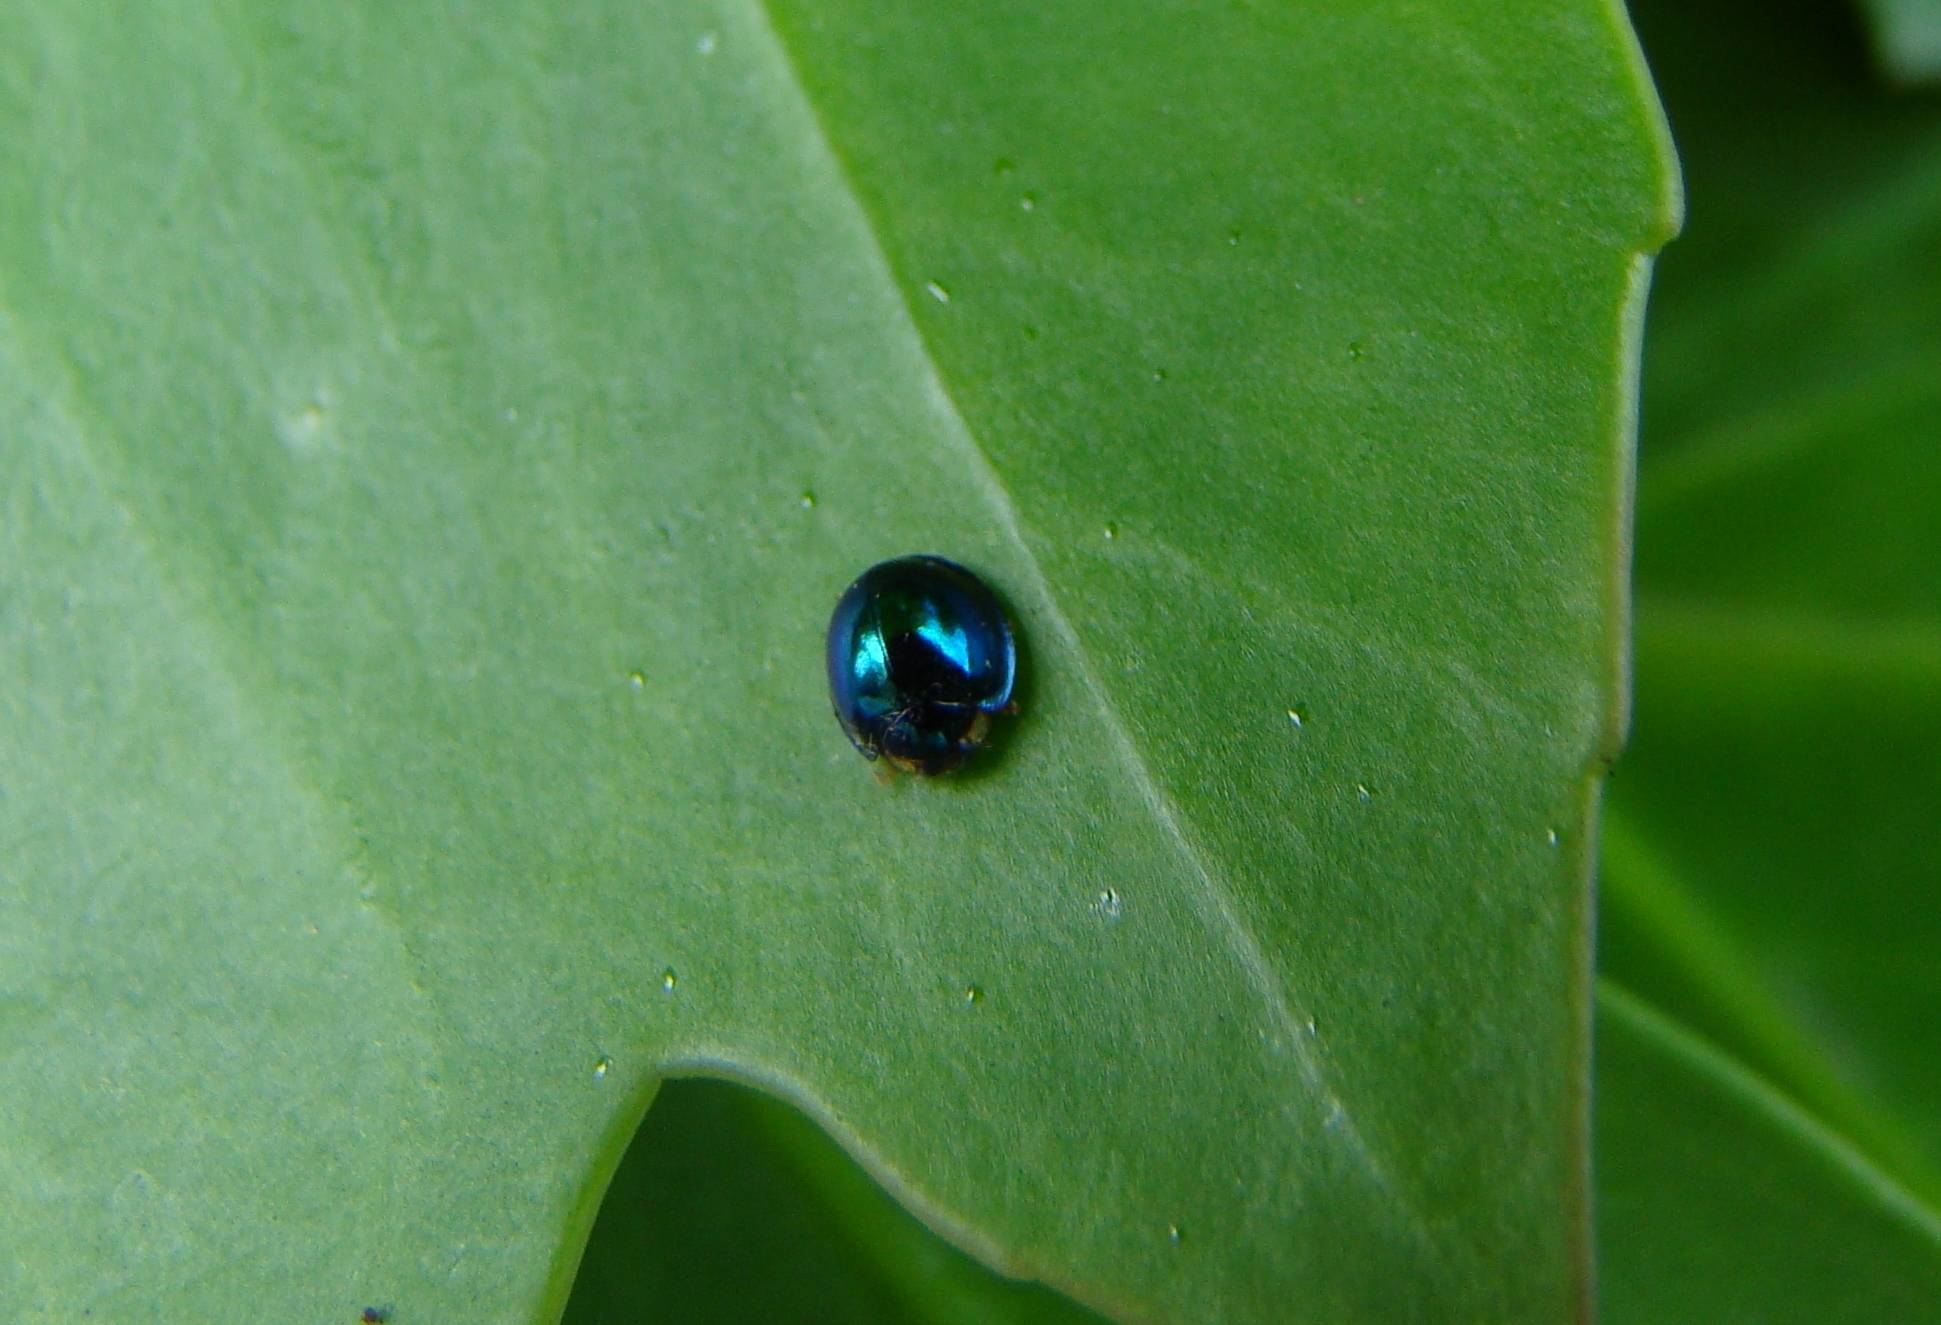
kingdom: Animalia
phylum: Arthropoda
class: Insecta
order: Coleoptera
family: Coccinellidae
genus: Halmus
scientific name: Halmus chalybeus
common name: Steel blue ladybird beetle
